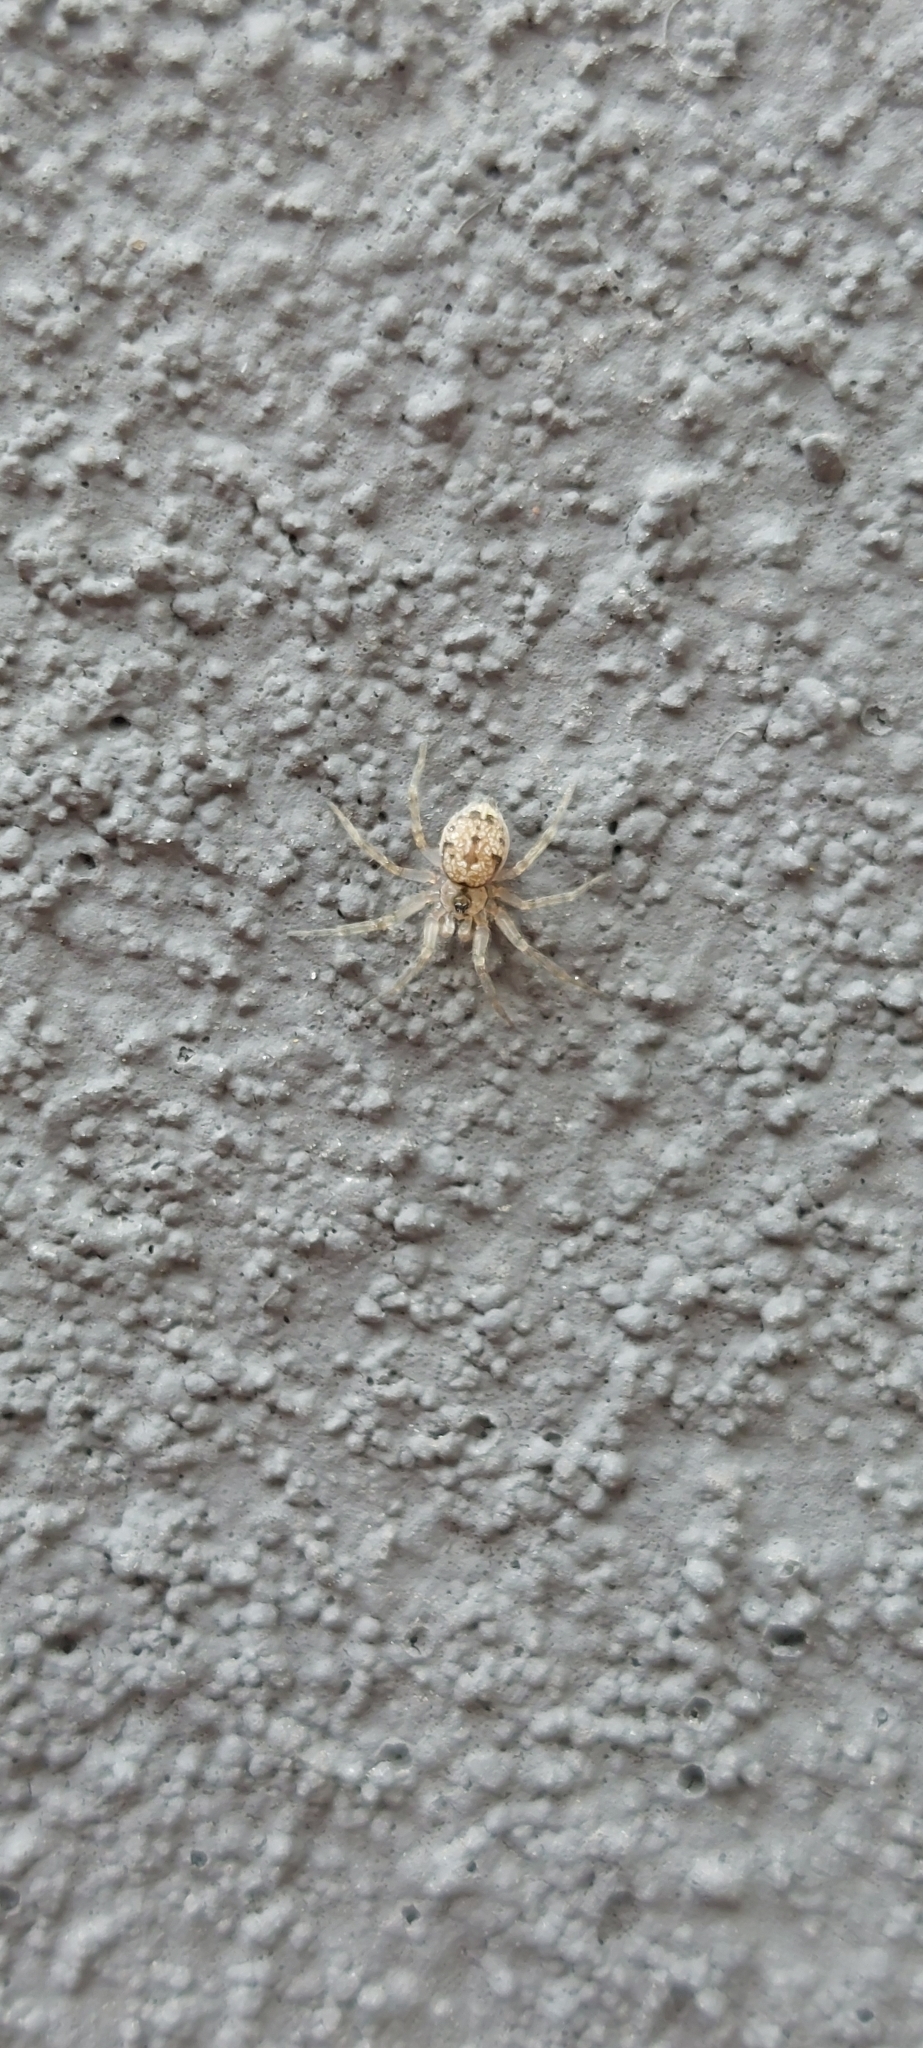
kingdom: Animalia
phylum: Arthropoda
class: Arachnida
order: Araneae
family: Oecobiidae
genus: Oecobius
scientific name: Oecobius navus
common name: Flatmesh weaver
